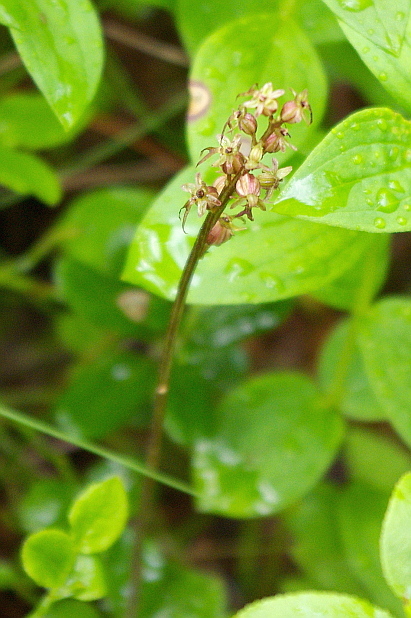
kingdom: Plantae
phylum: Tracheophyta
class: Liliopsida
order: Asparagales
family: Orchidaceae
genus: Neottia
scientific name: Neottia cordata
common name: Lesser twayblade
